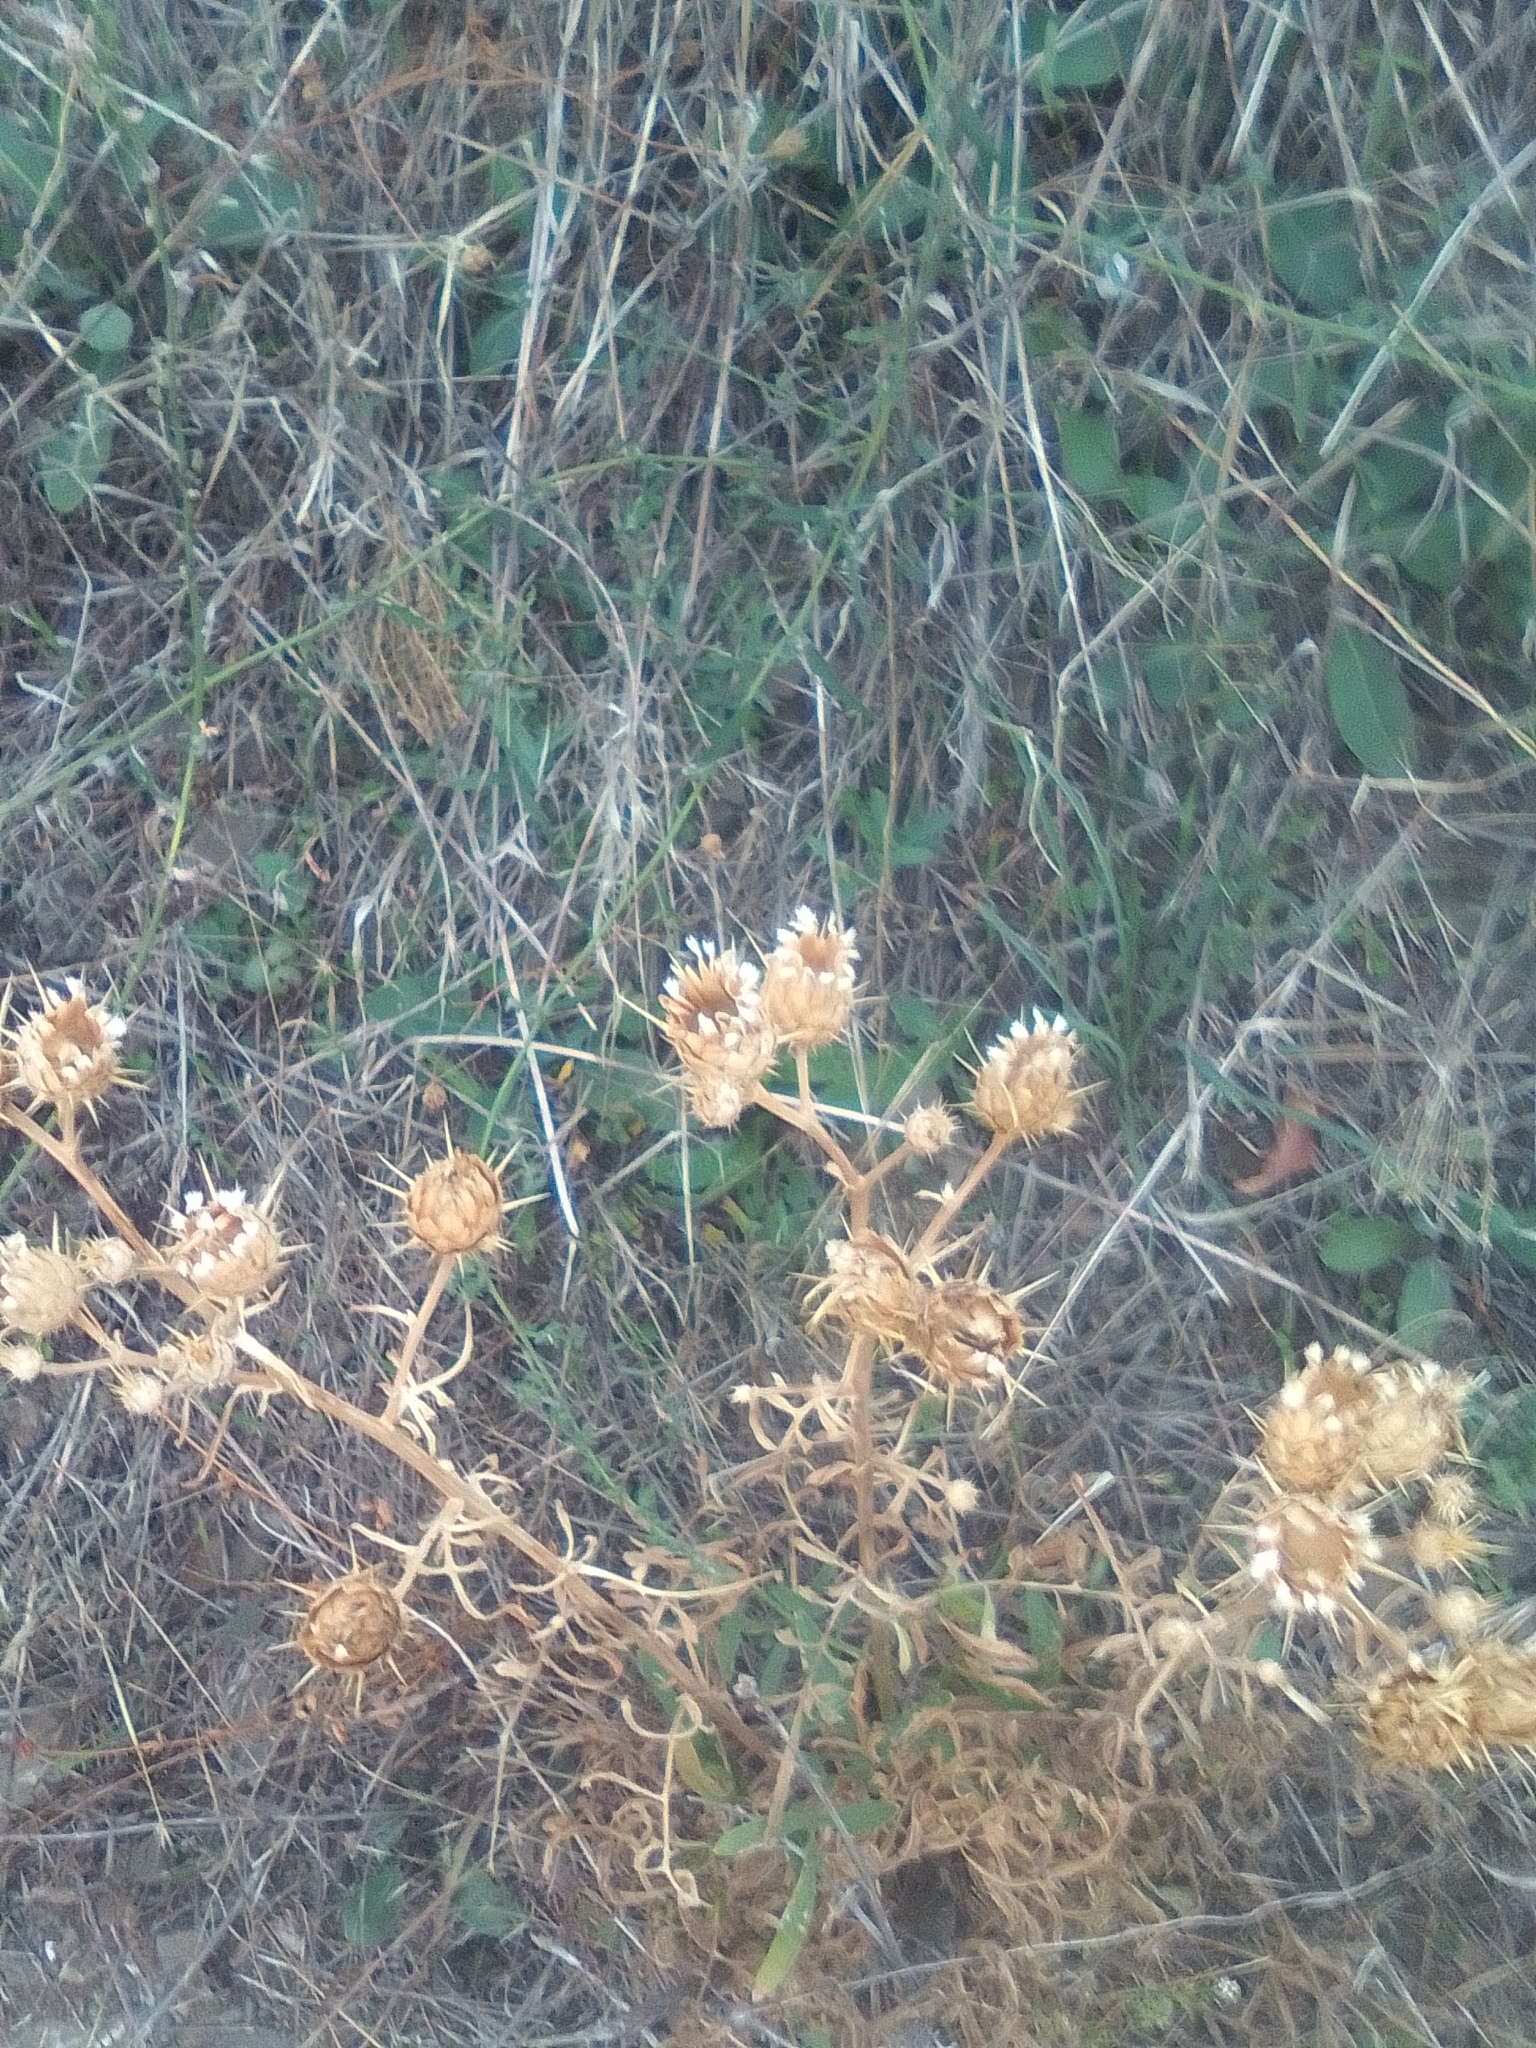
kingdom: Plantae
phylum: Tracheophyta
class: Magnoliopsida
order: Asterales
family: Asteraceae
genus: Centaurea
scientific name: Centaurea salonitana
